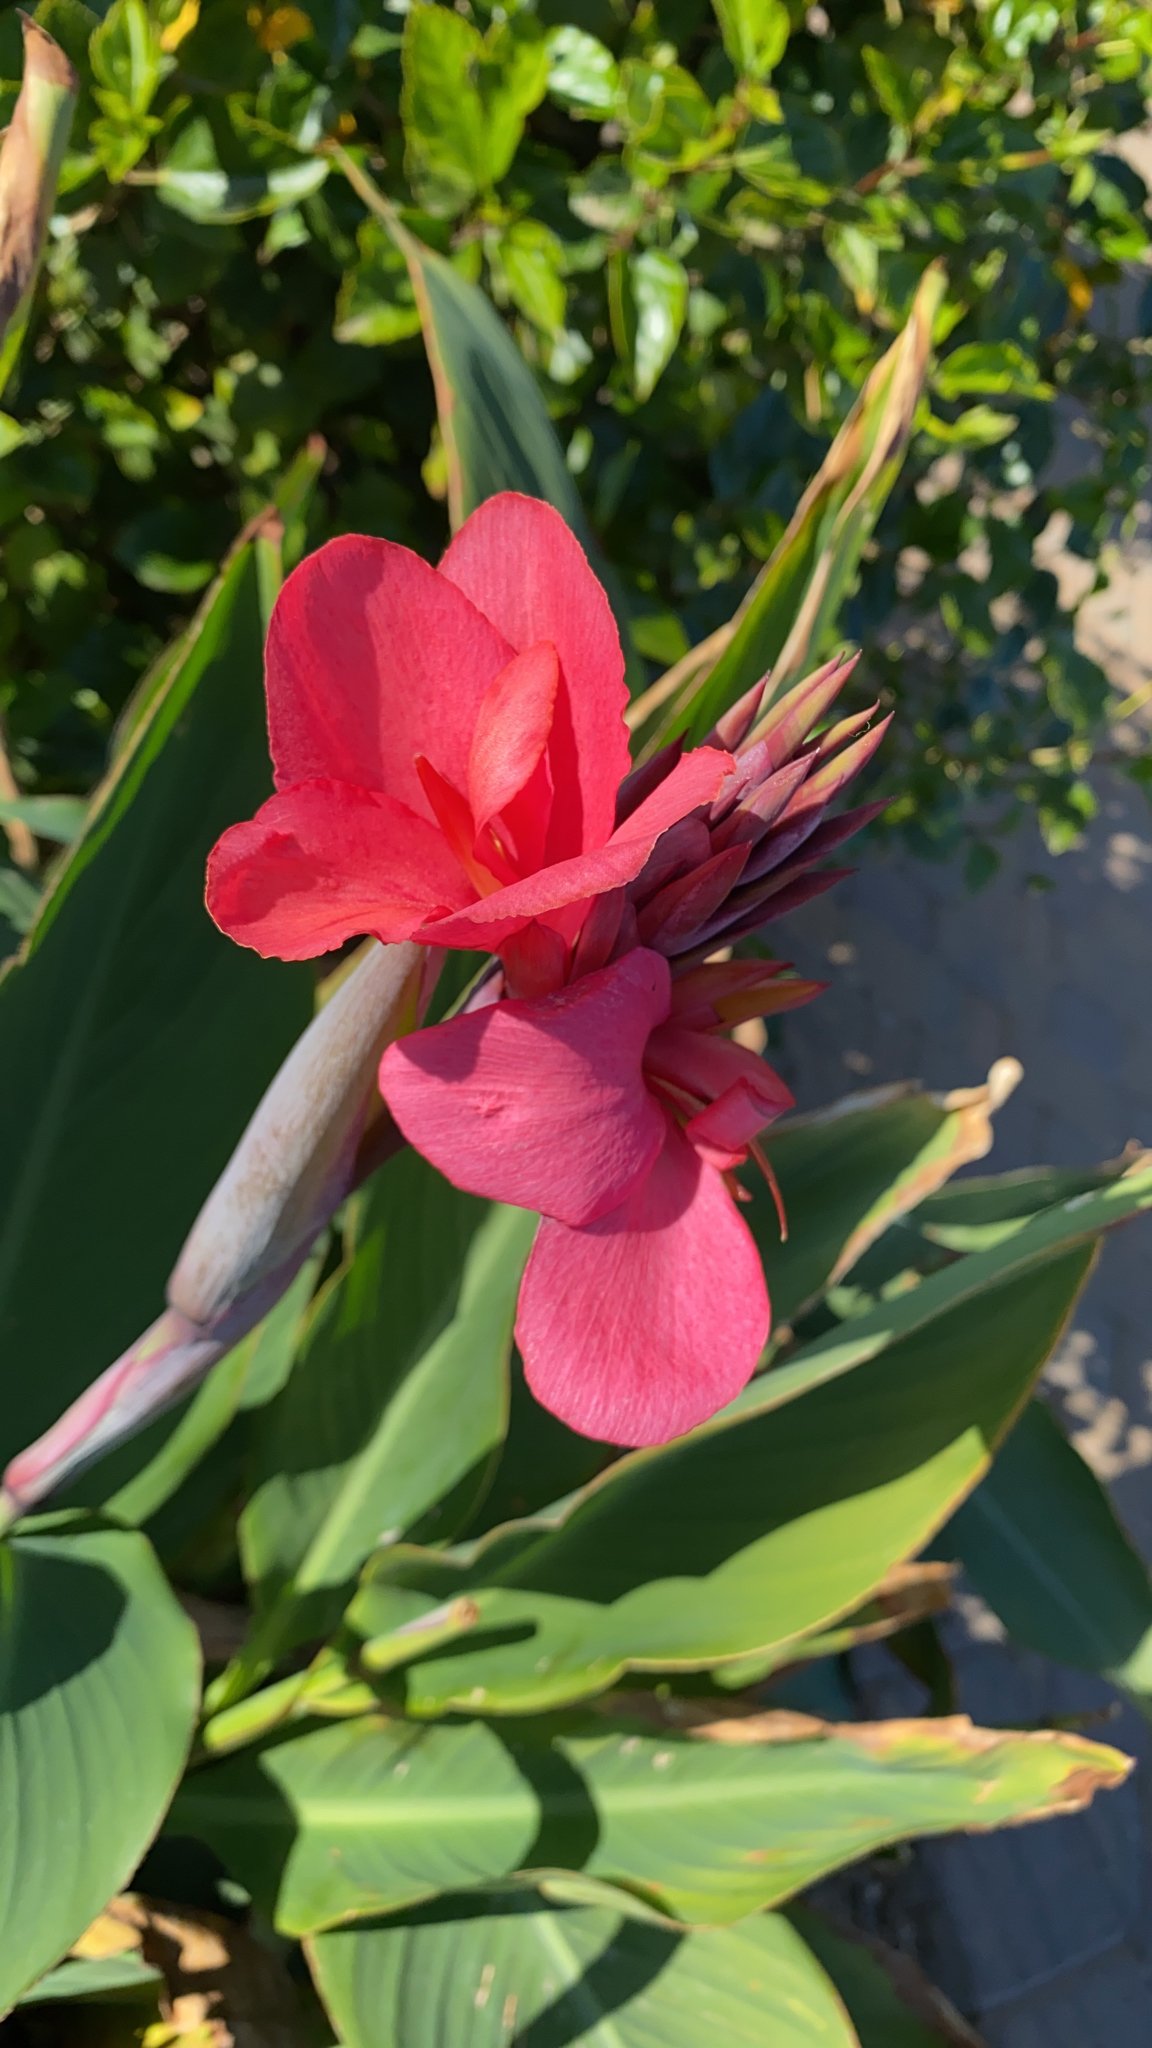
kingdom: Plantae
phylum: Tracheophyta
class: Liliopsida
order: Zingiberales
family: Cannaceae
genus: Canna
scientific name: Canna hybrida
